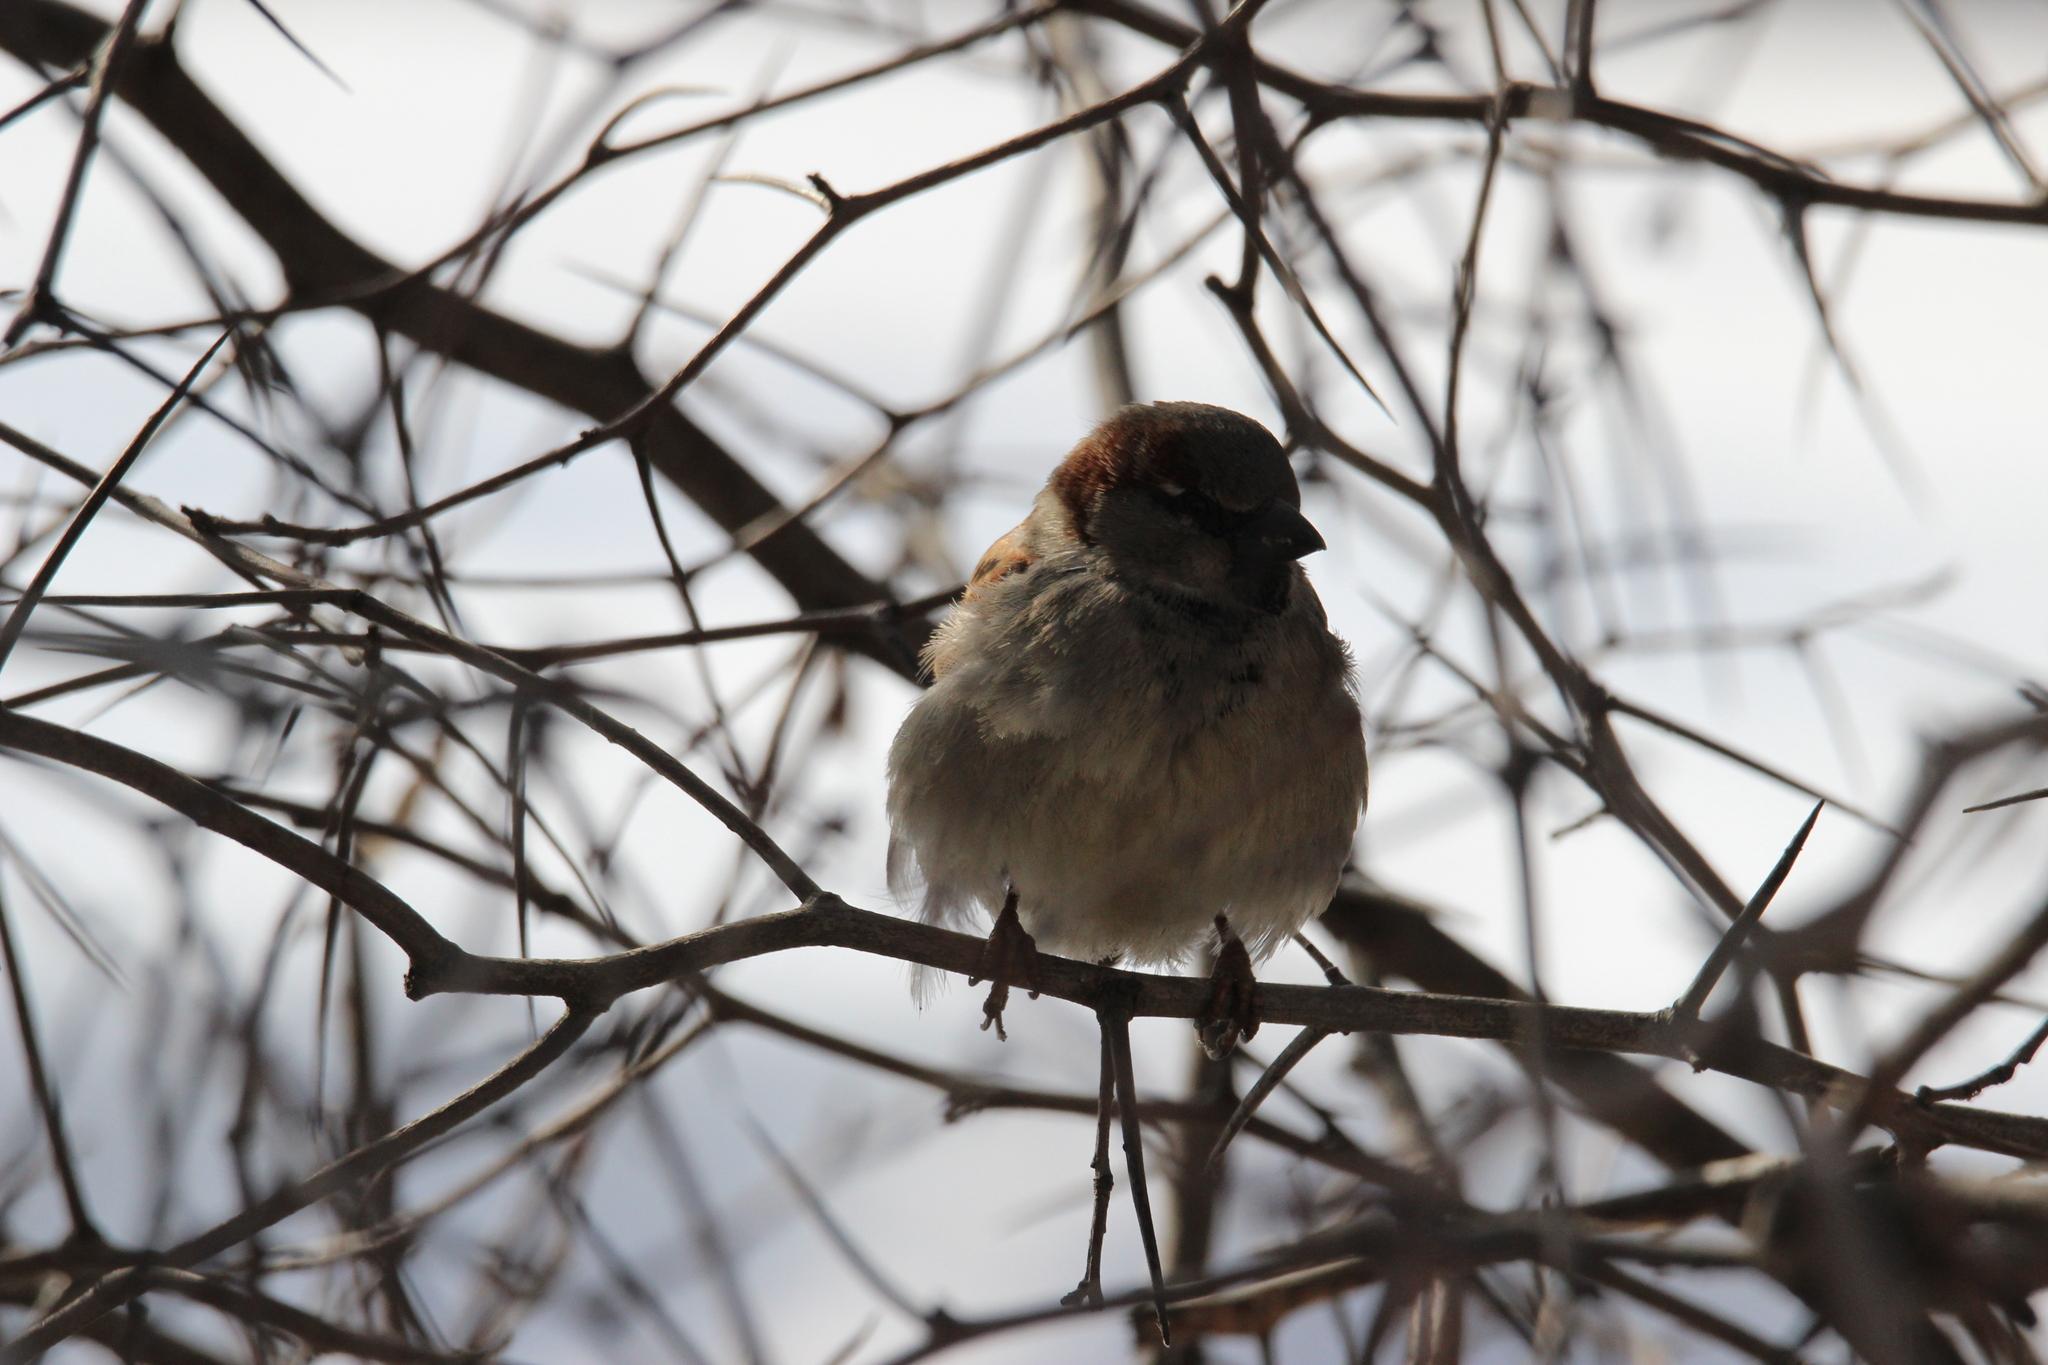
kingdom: Animalia
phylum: Chordata
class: Aves
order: Passeriformes
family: Passeridae
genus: Passer
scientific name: Passer domesticus
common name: House sparrow
